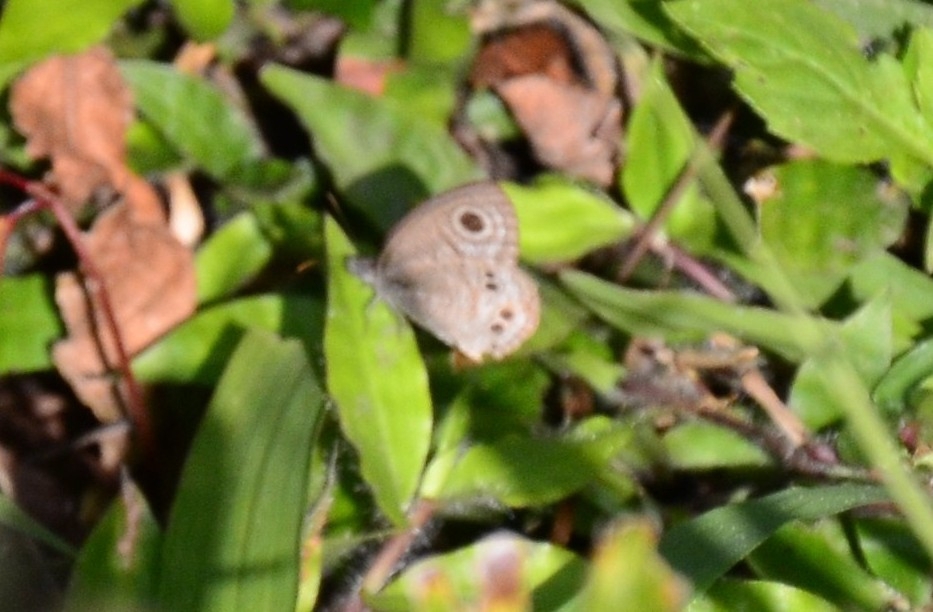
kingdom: Animalia
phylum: Arthropoda
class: Insecta
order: Lepidoptera
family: Nymphalidae
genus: Ypthima
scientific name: Ypthima baldus
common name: Common five-ring
